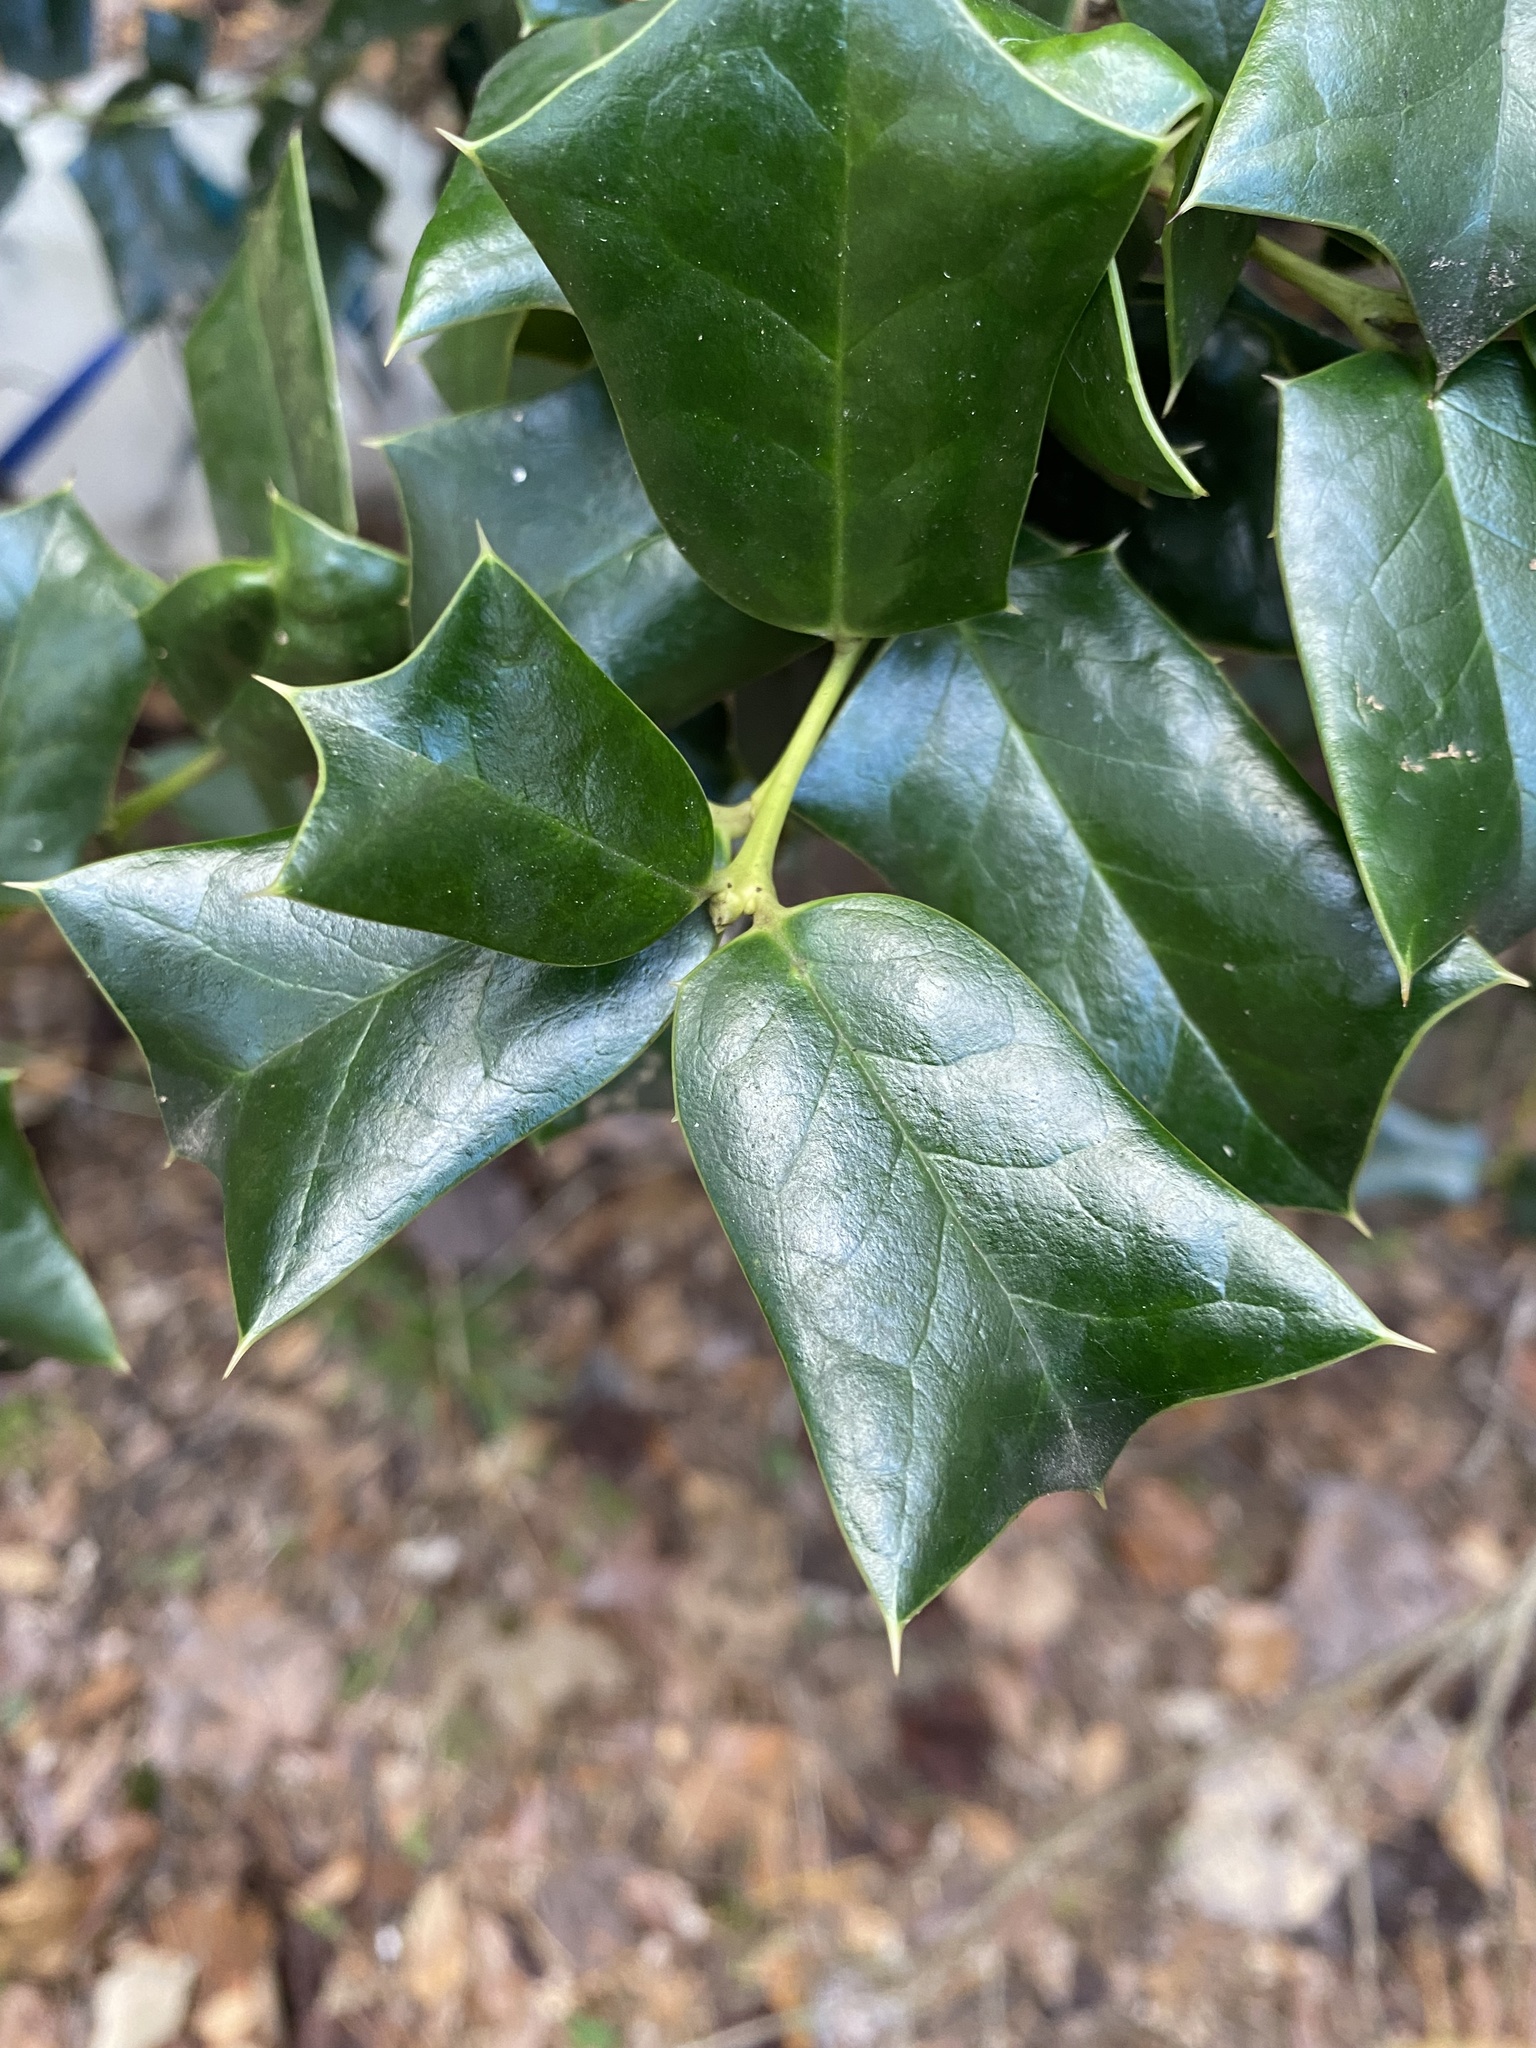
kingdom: Plantae
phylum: Tracheophyta
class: Magnoliopsida
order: Aquifoliales
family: Aquifoliaceae
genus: Ilex
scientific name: Ilex cornuta
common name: Chinese holly
